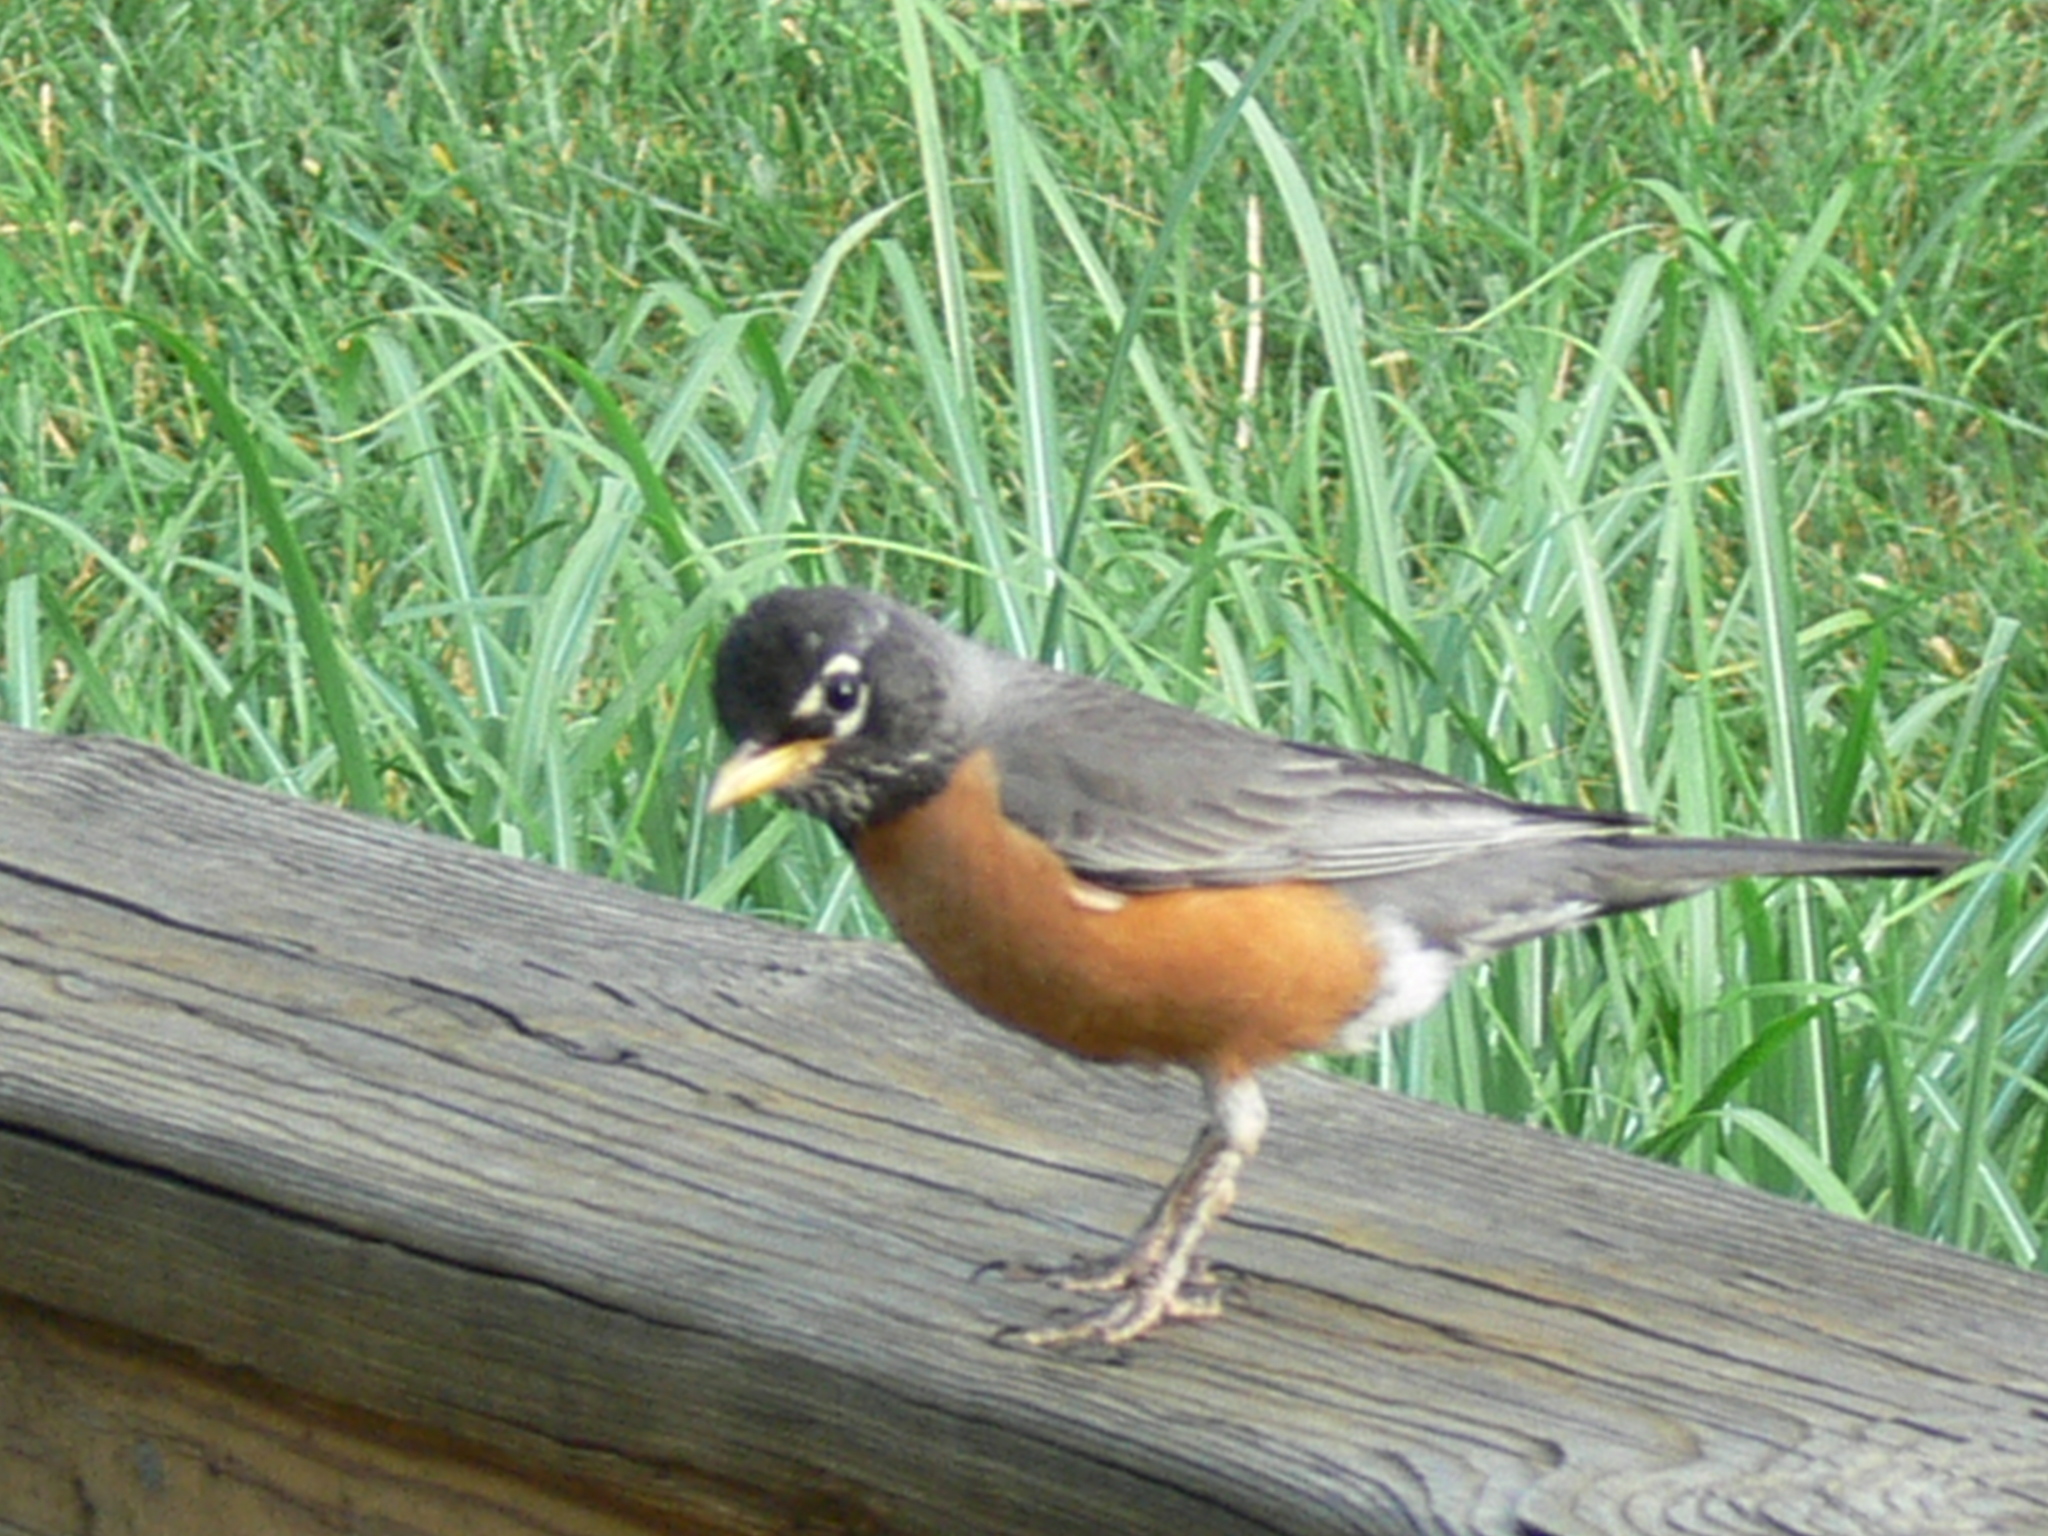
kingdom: Animalia
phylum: Chordata
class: Aves
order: Passeriformes
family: Turdidae
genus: Turdus
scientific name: Turdus migratorius
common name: American robin
